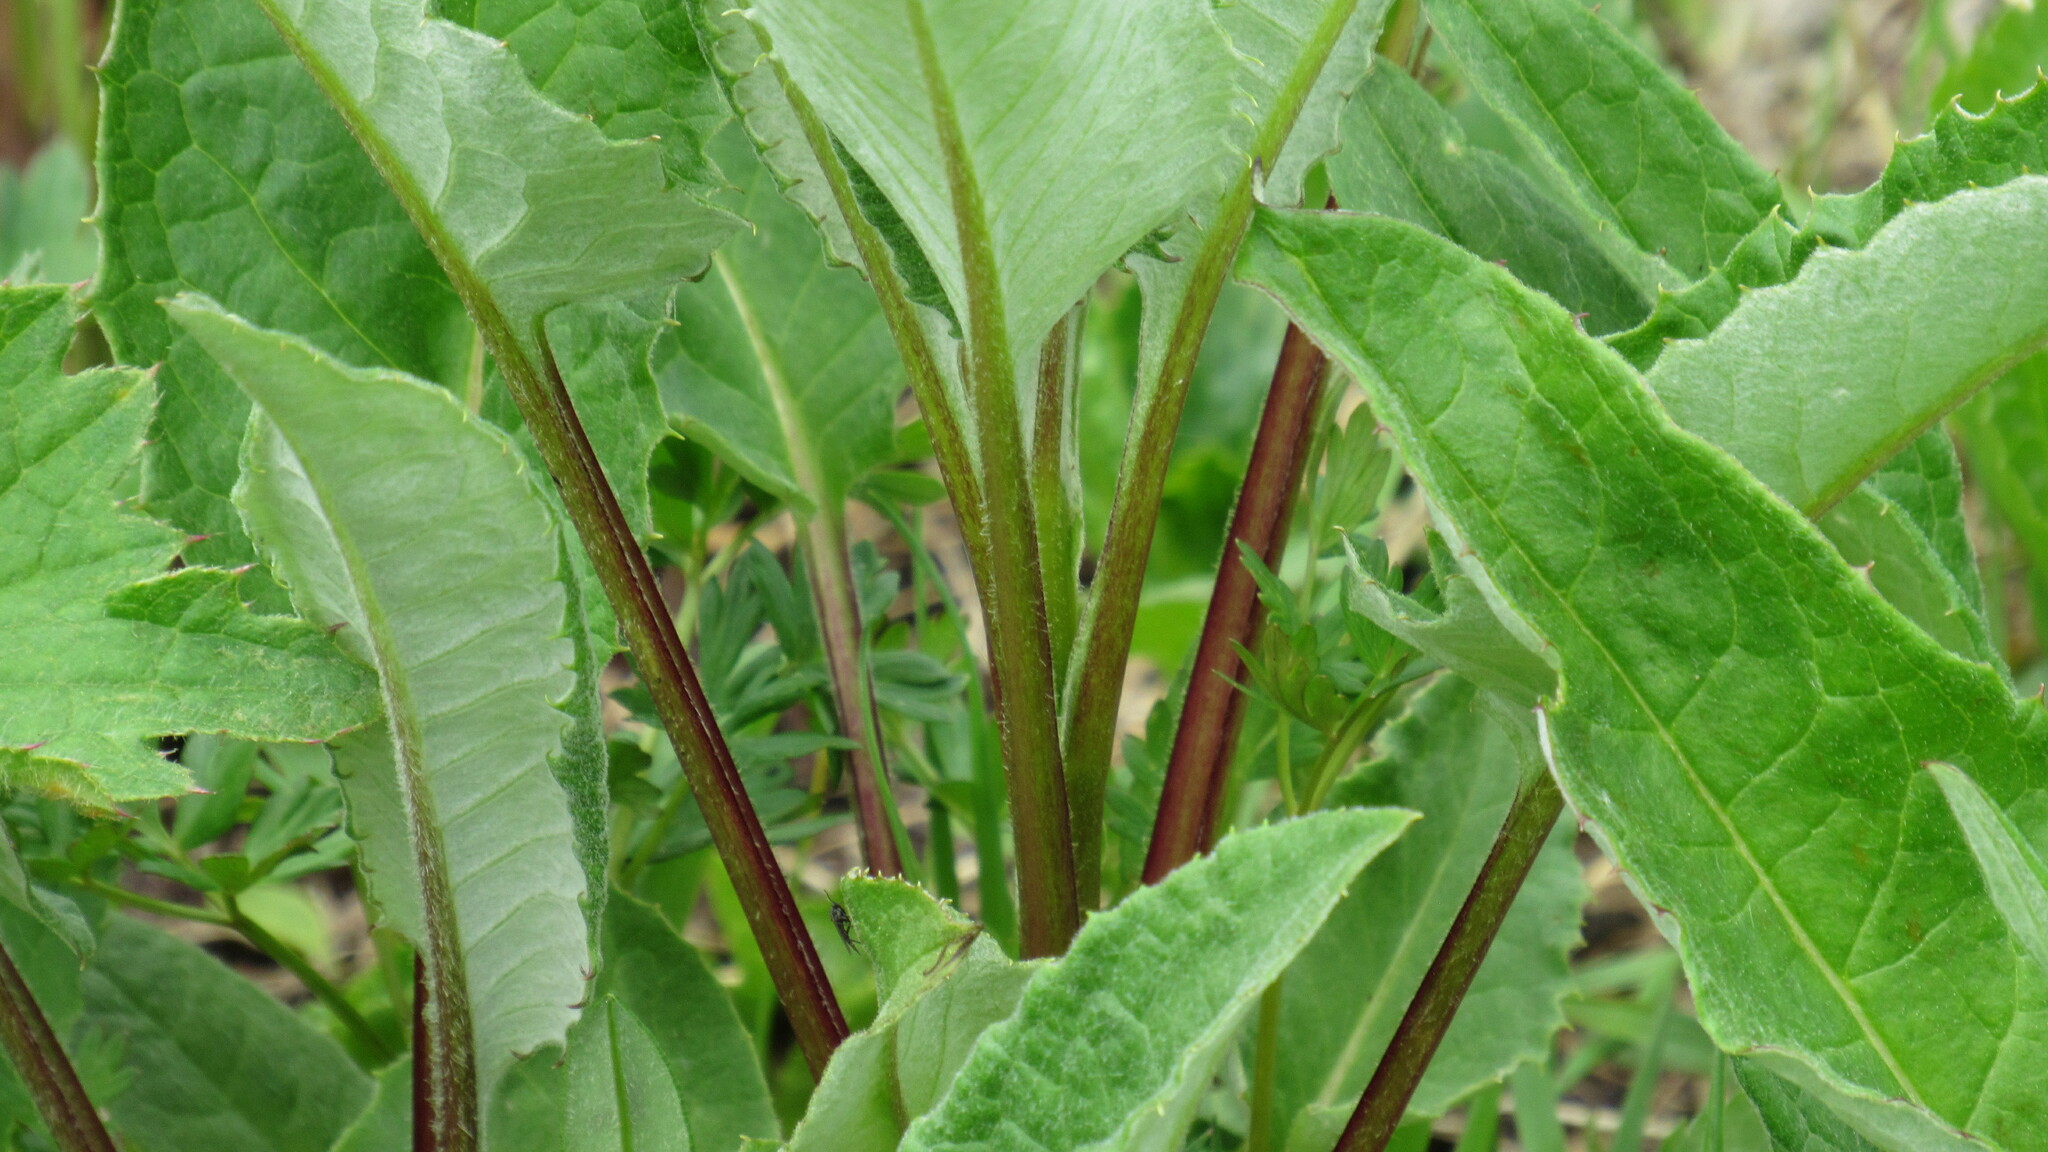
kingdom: Plantae
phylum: Tracheophyta
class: Magnoliopsida
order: Asterales
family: Asteraceae
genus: Saussurea
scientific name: Saussurea pseudotilesii
